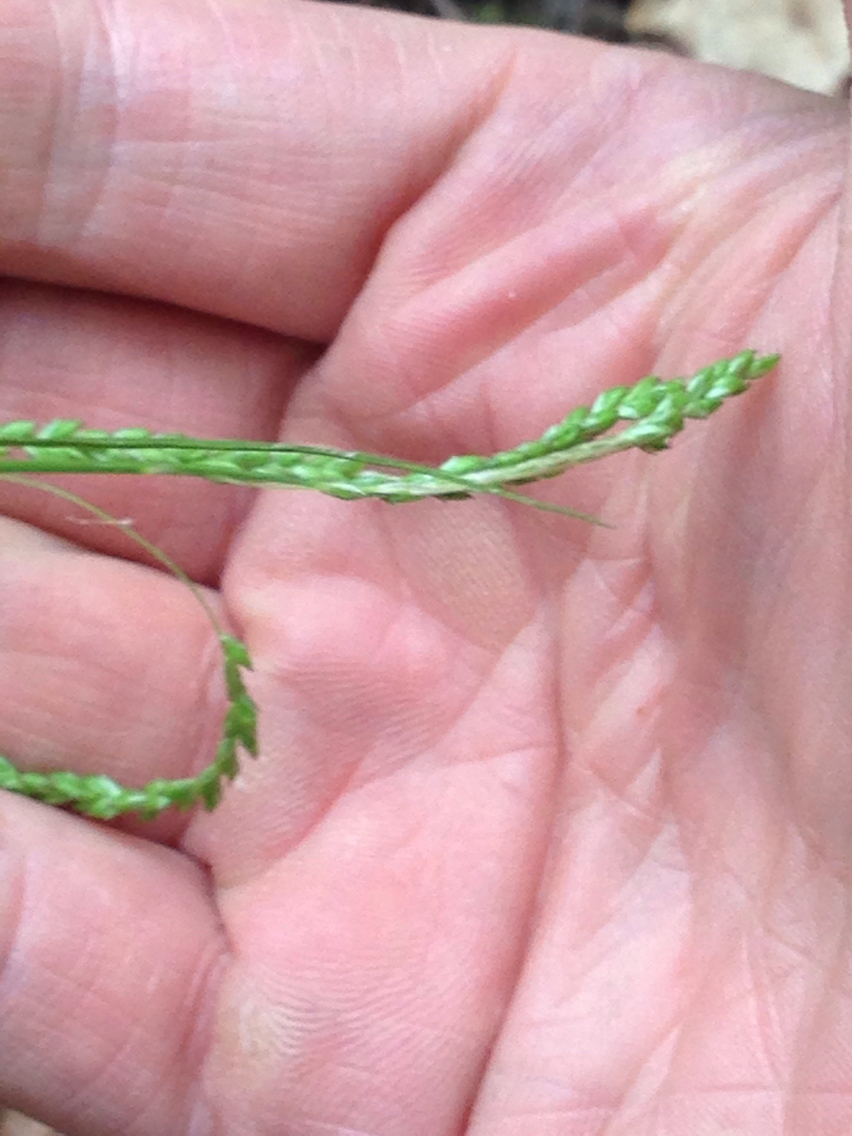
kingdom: Plantae
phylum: Tracheophyta
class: Liliopsida
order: Poales
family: Cyperaceae
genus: Carex
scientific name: Carex gracillima
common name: Graceful sedge
